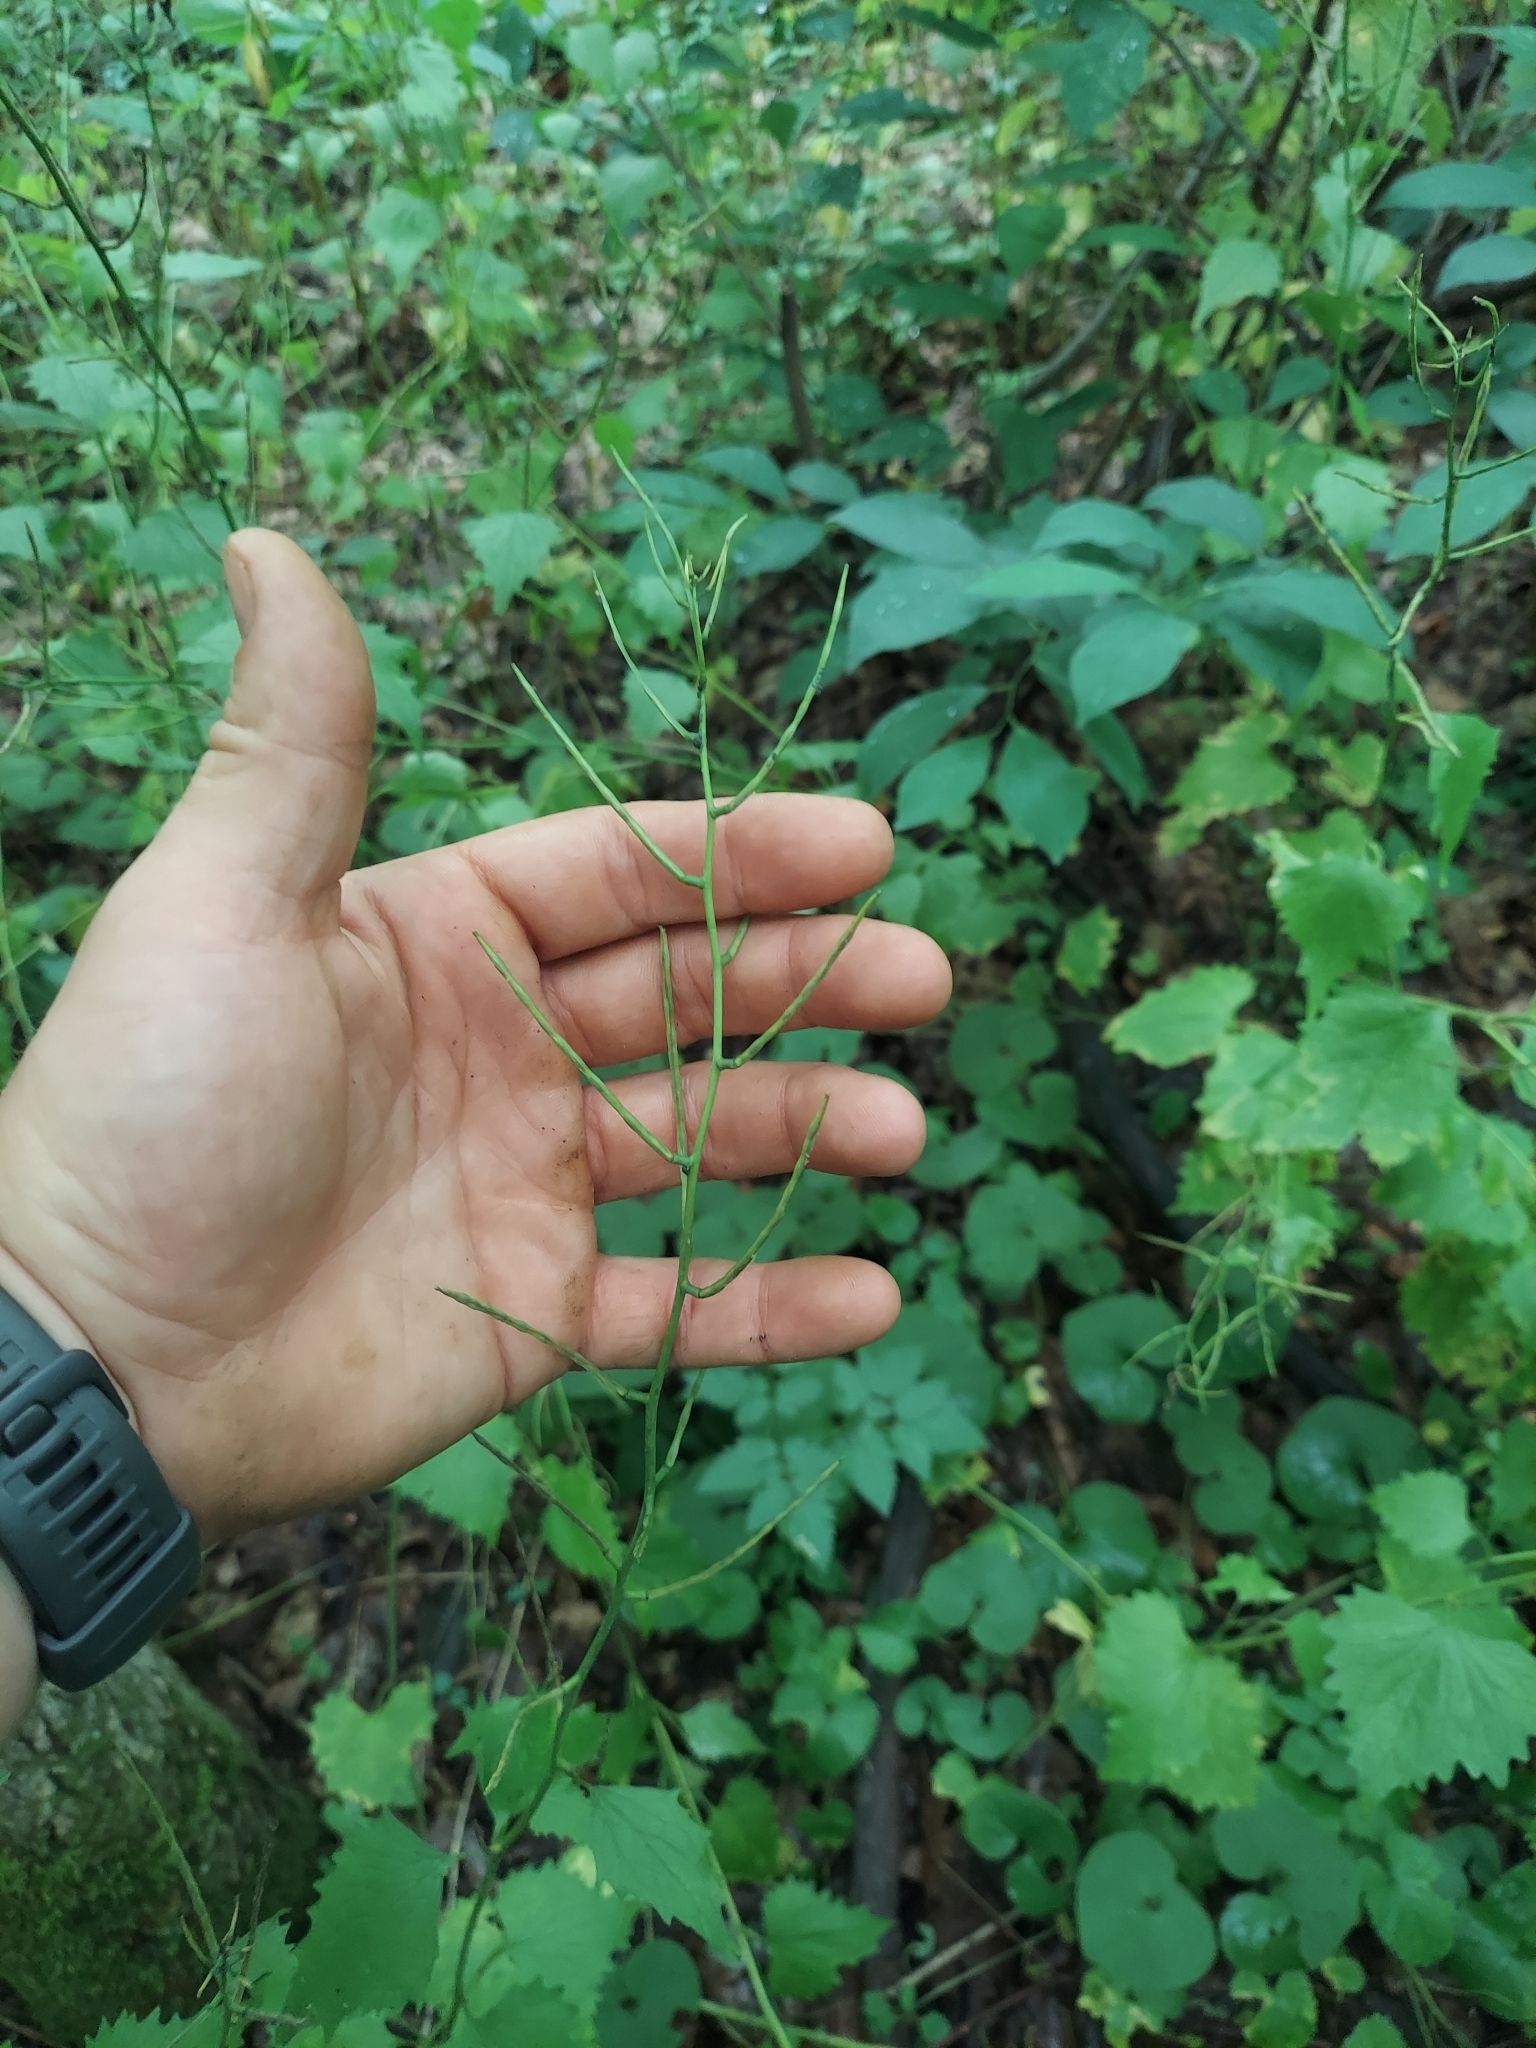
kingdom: Plantae
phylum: Tracheophyta
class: Magnoliopsida
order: Brassicales
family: Brassicaceae
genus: Alliaria
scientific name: Alliaria petiolata
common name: Garlic mustard
